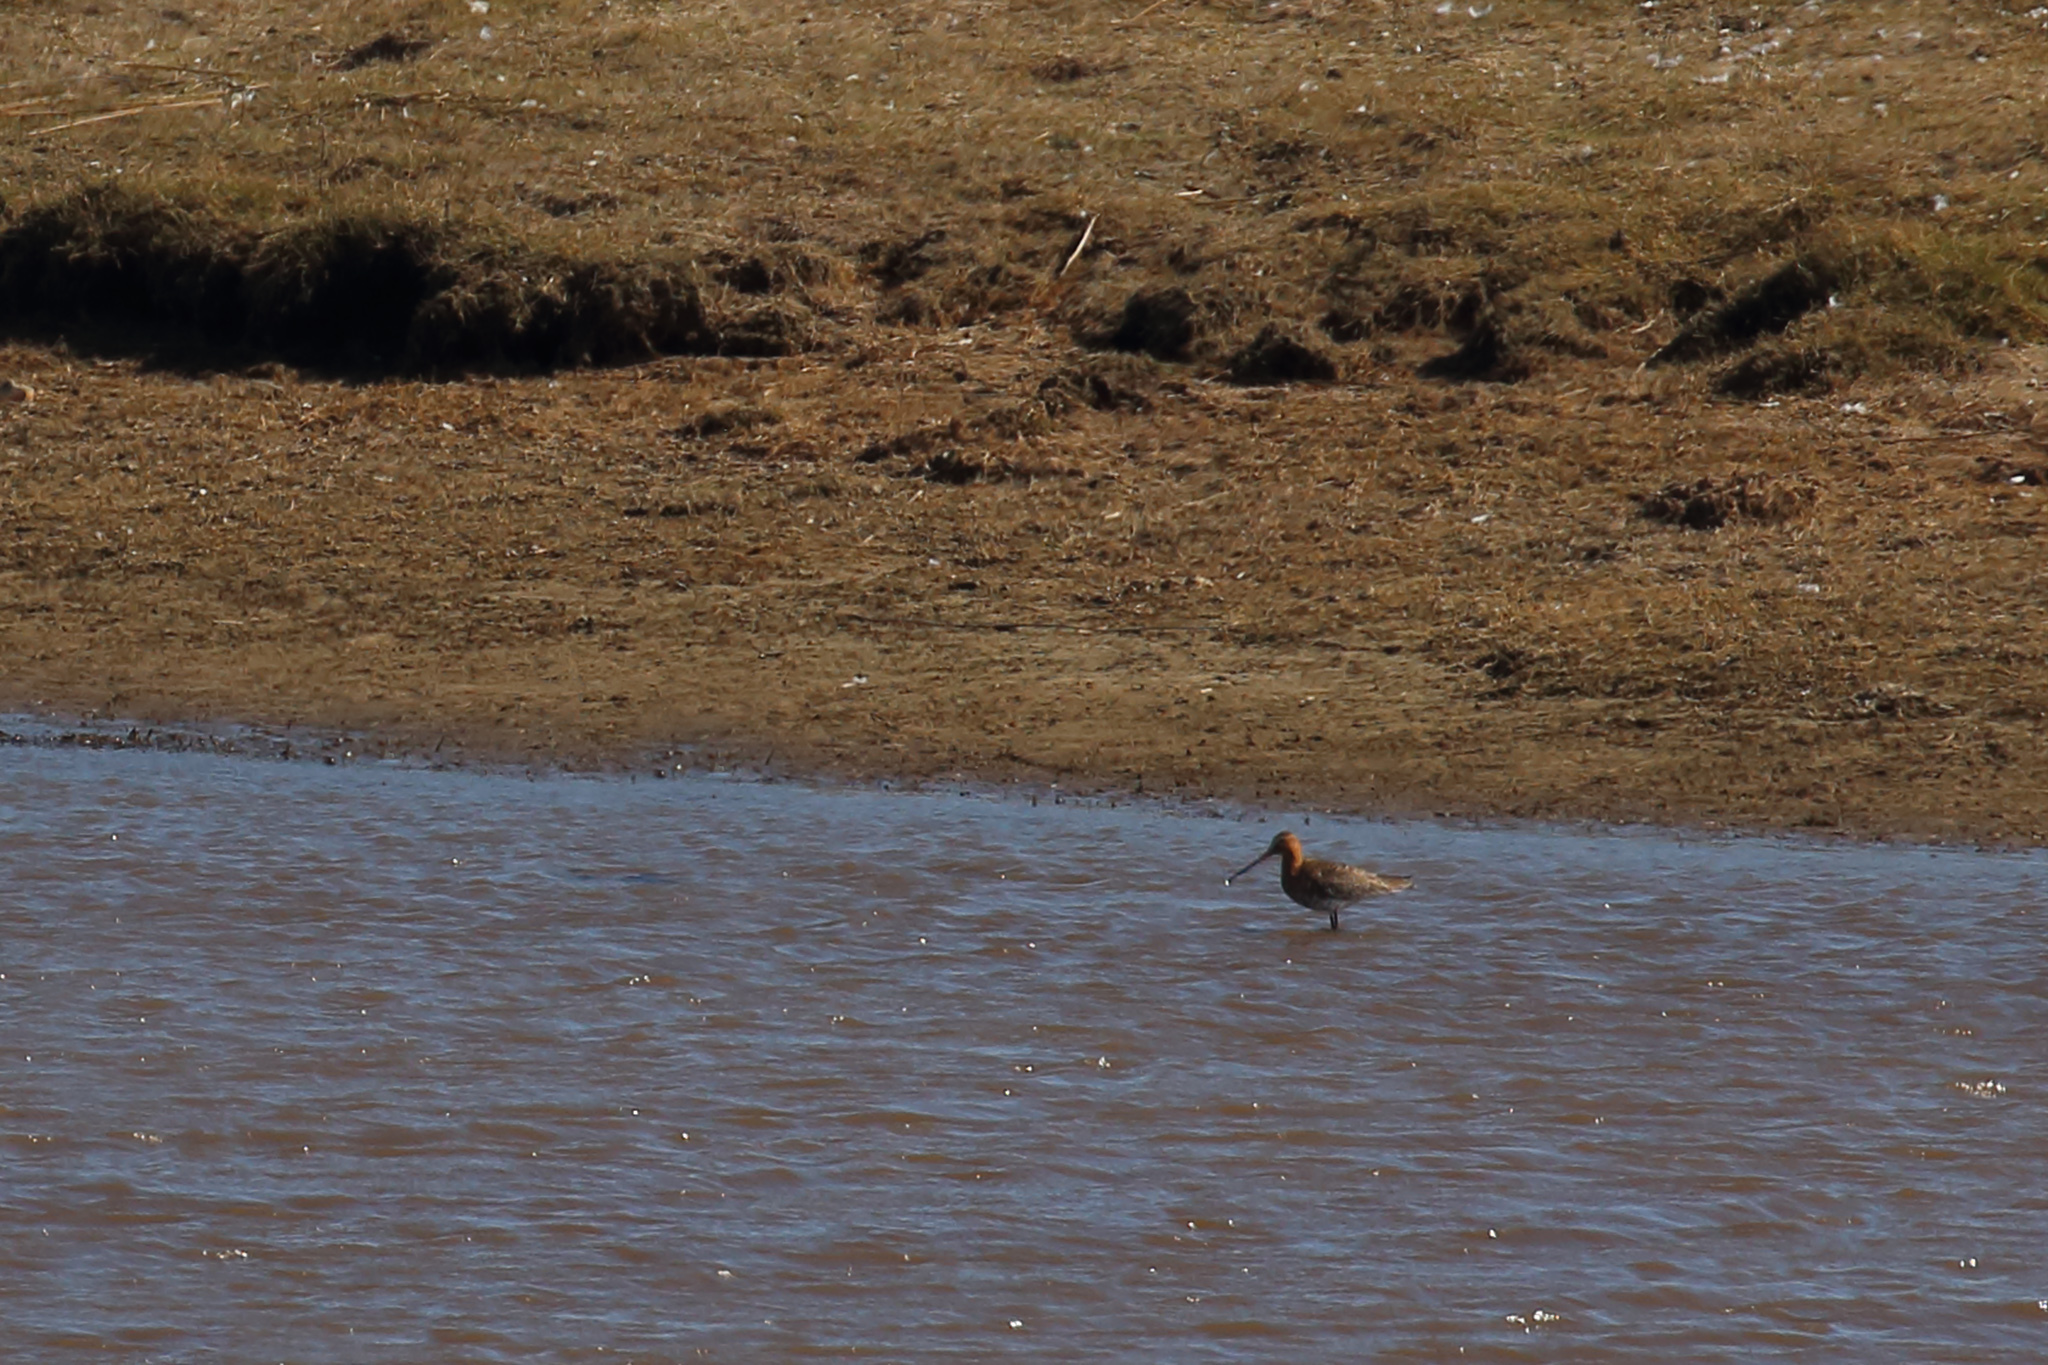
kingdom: Animalia
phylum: Chordata
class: Aves
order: Charadriiformes
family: Scolopacidae
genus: Limosa
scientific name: Limosa limosa
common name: Black-tailed godwit
